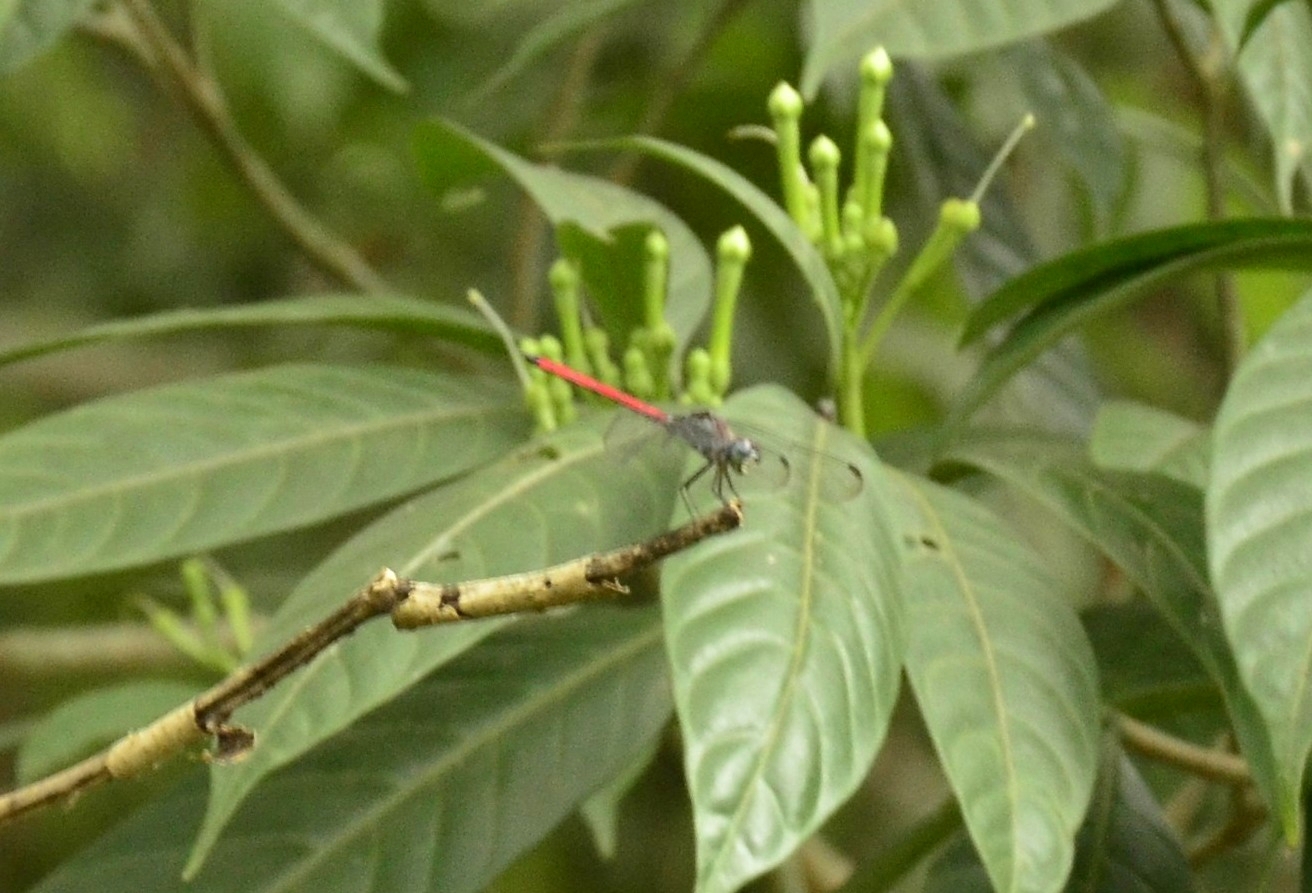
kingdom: Animalia
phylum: Arthropoda
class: Insecta
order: Odonata
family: Libellulidae
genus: Lathrecista
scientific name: Lathrecista asiatica
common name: Scarlet grenadier
